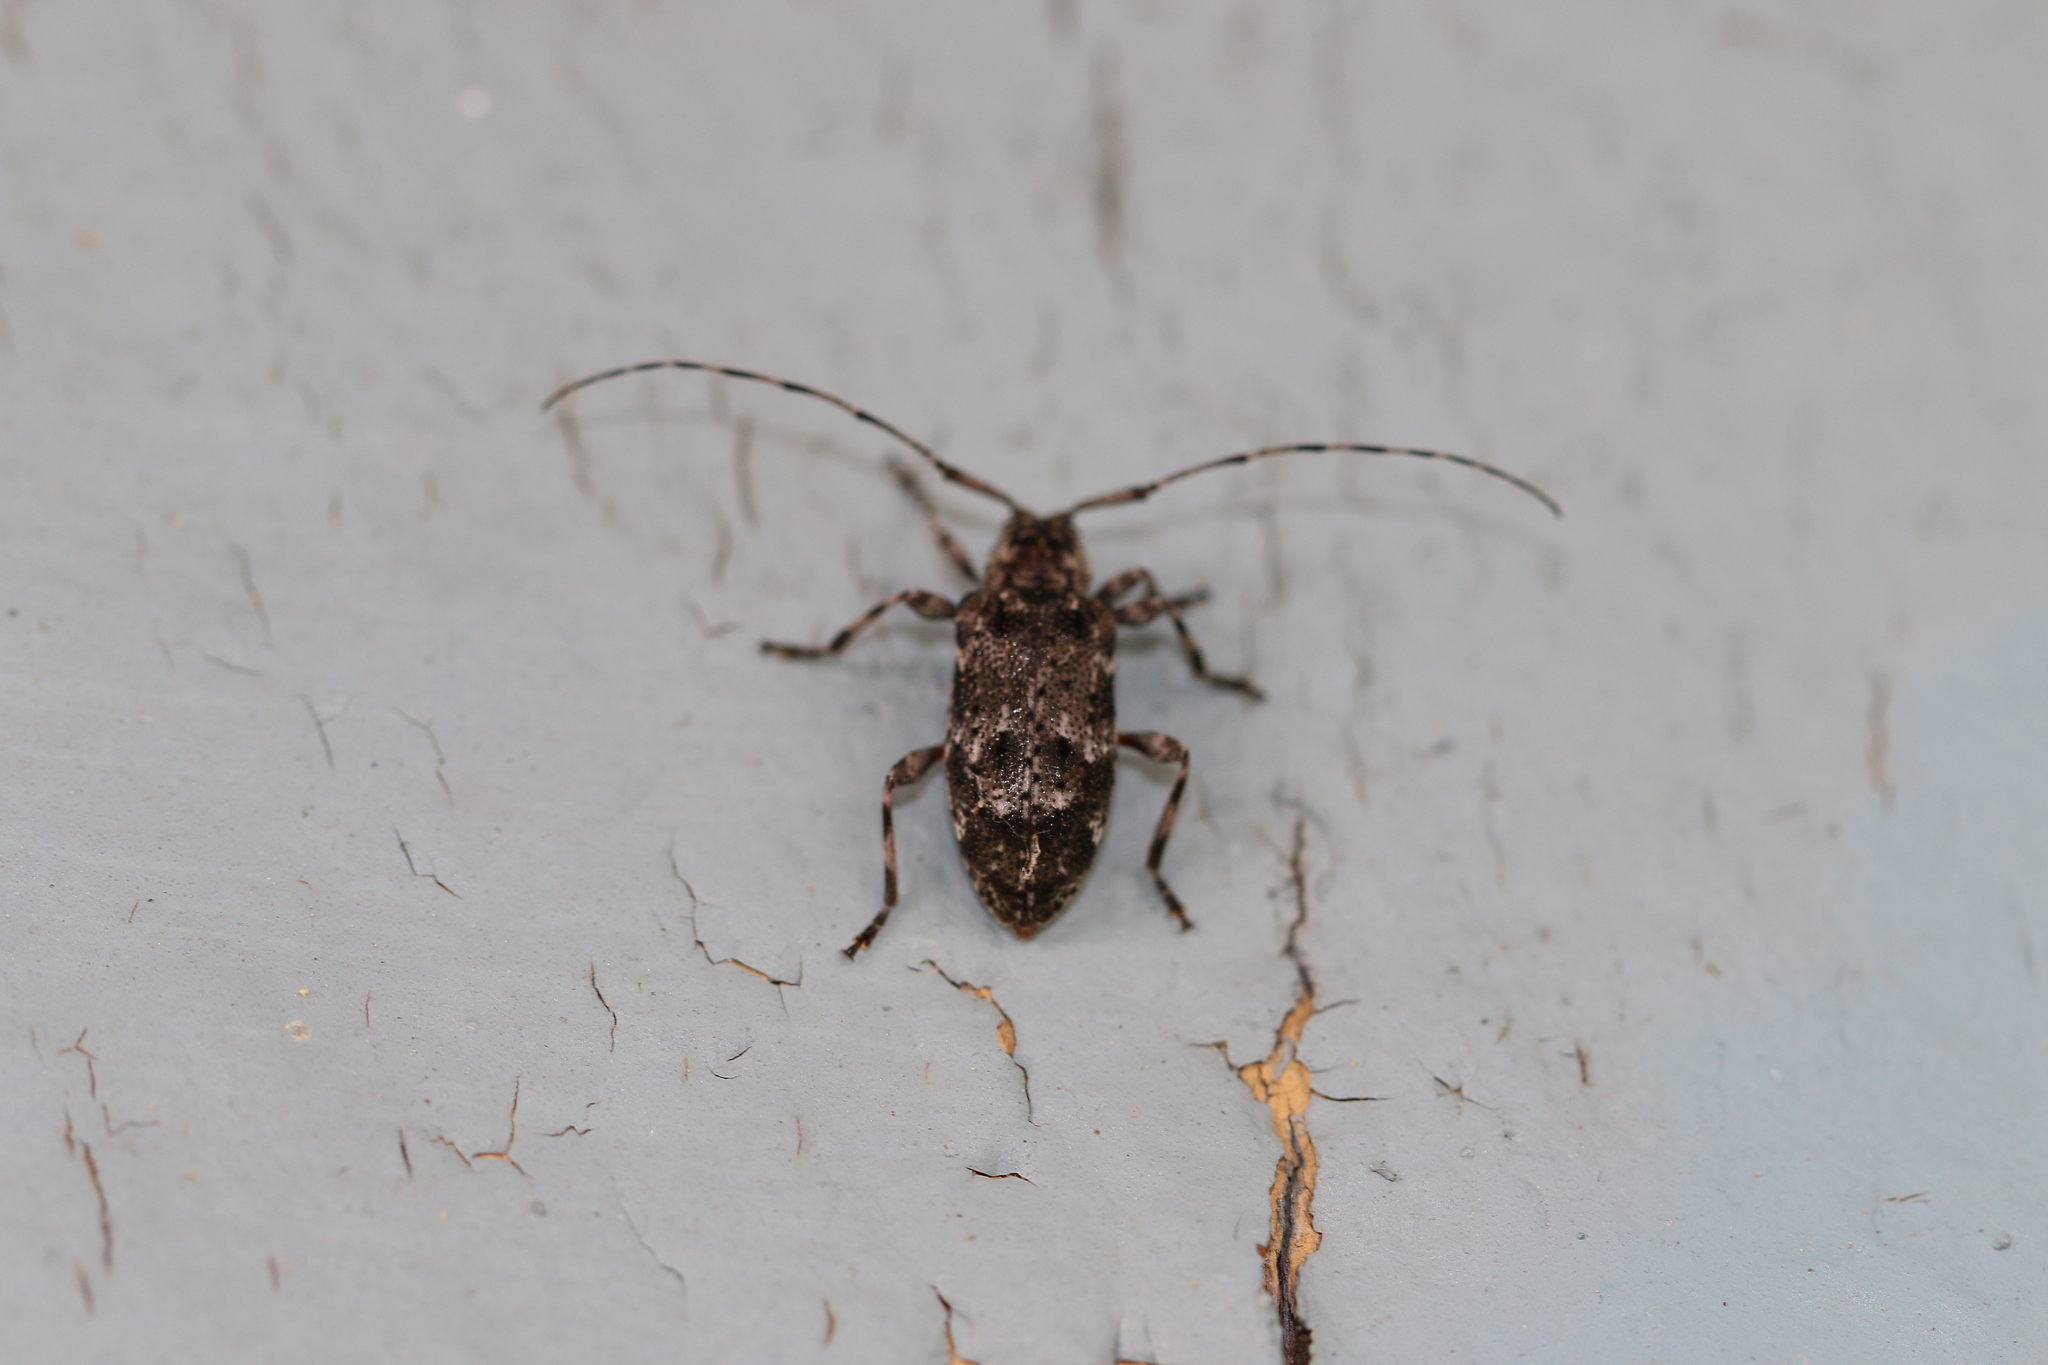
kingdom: Animalia
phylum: Arthropoda
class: Insecta
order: Coleoptera
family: Cerambycidae
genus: Astylopsis
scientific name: Astylopsis sexguttata
